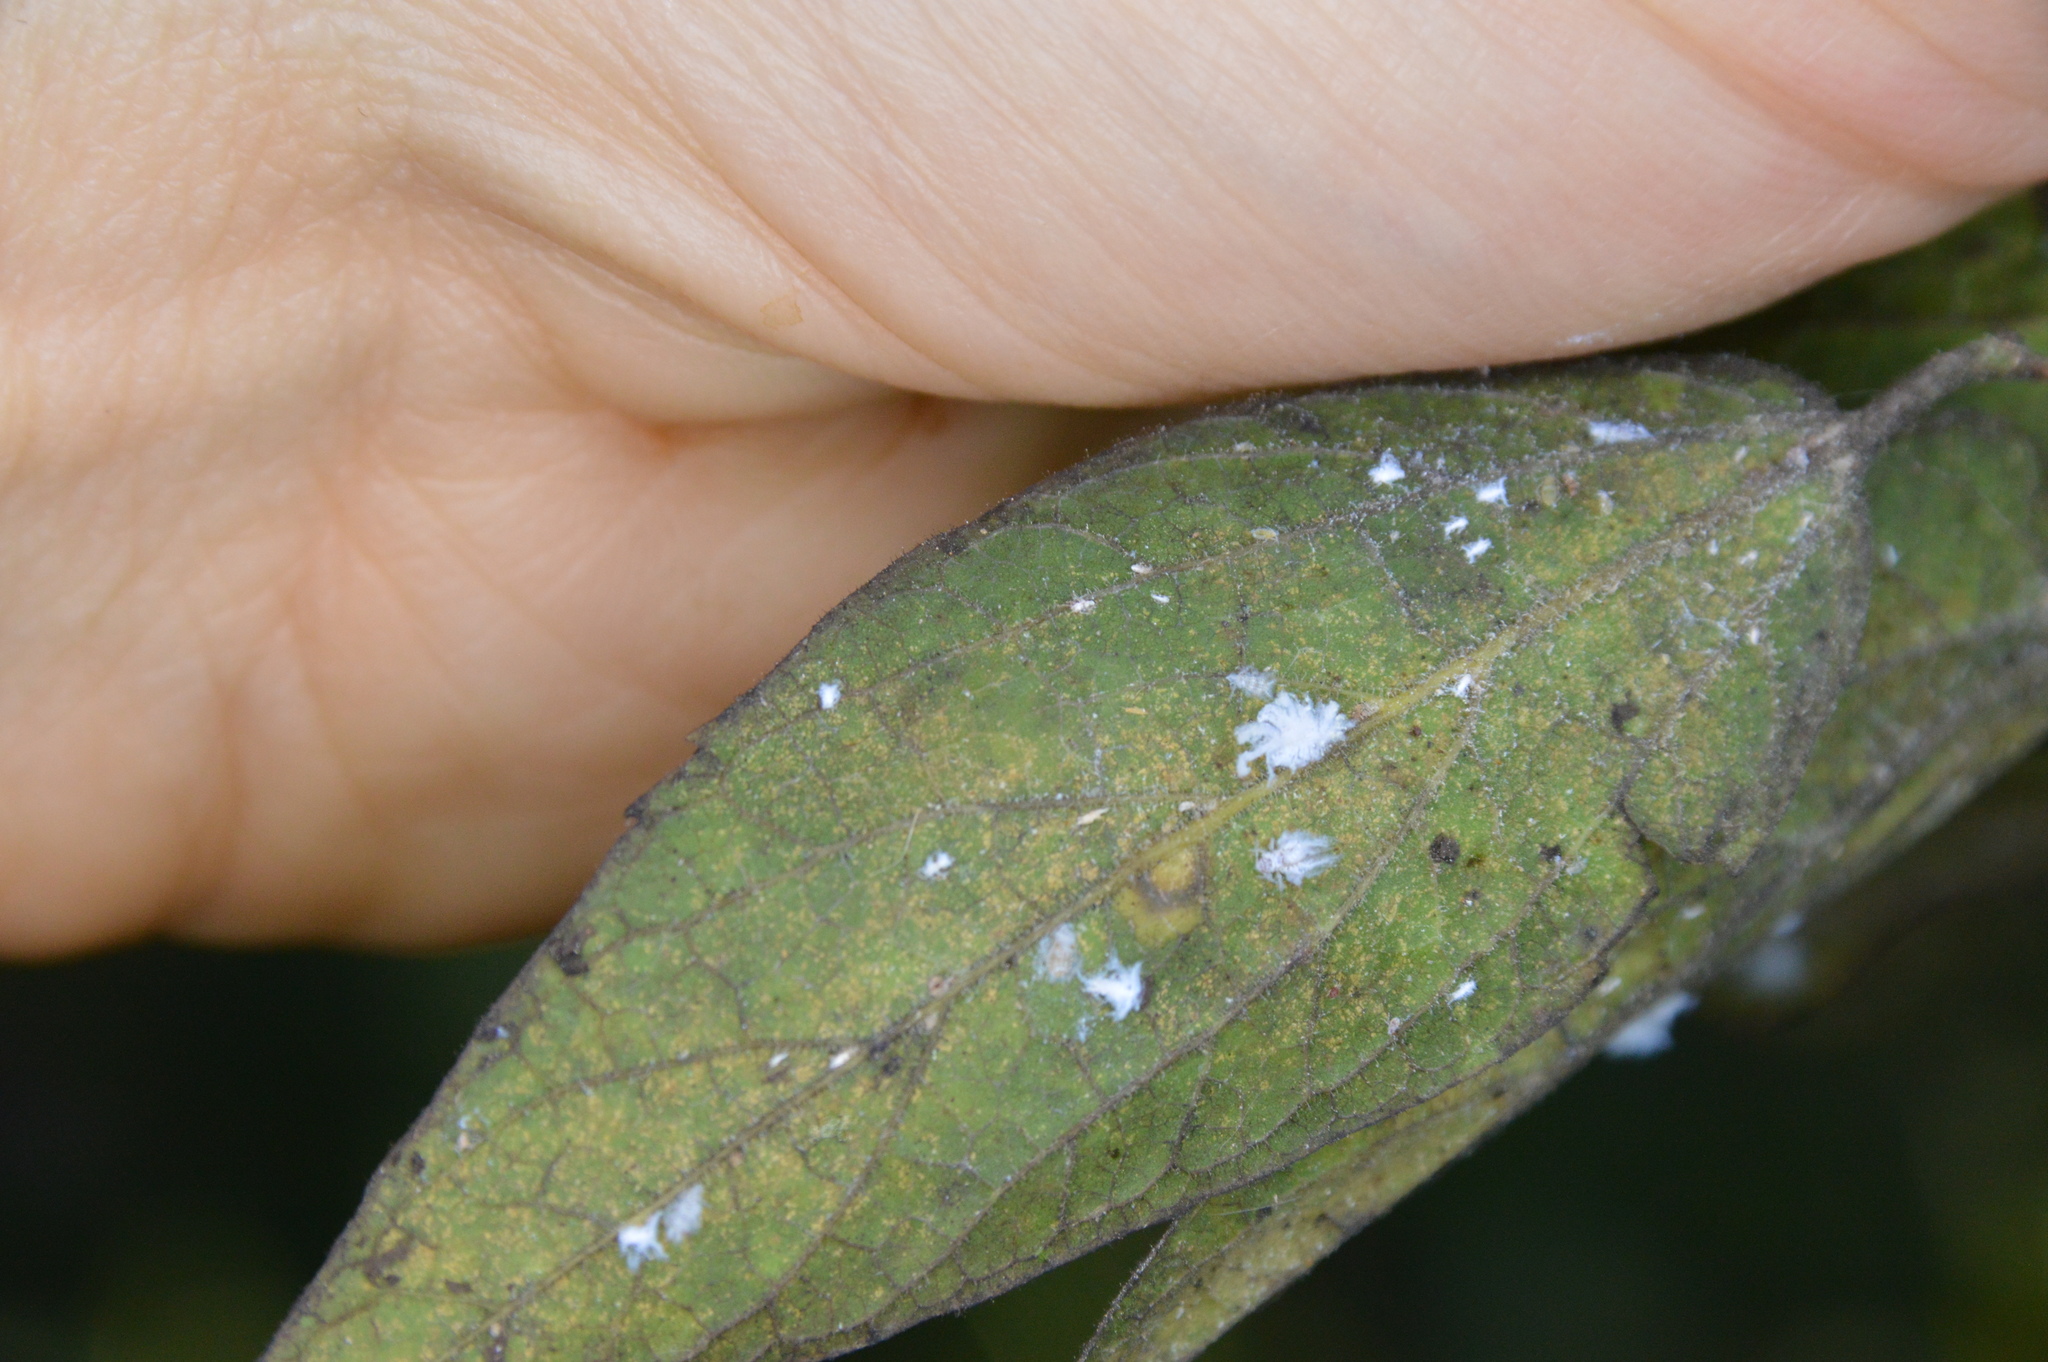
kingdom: Animalia
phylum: Arthropoda
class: Insecta
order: Hemiptera
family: Aphididae
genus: Shivaphis
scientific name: Shivaphis celti
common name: Asian wooly hackberry aphid
